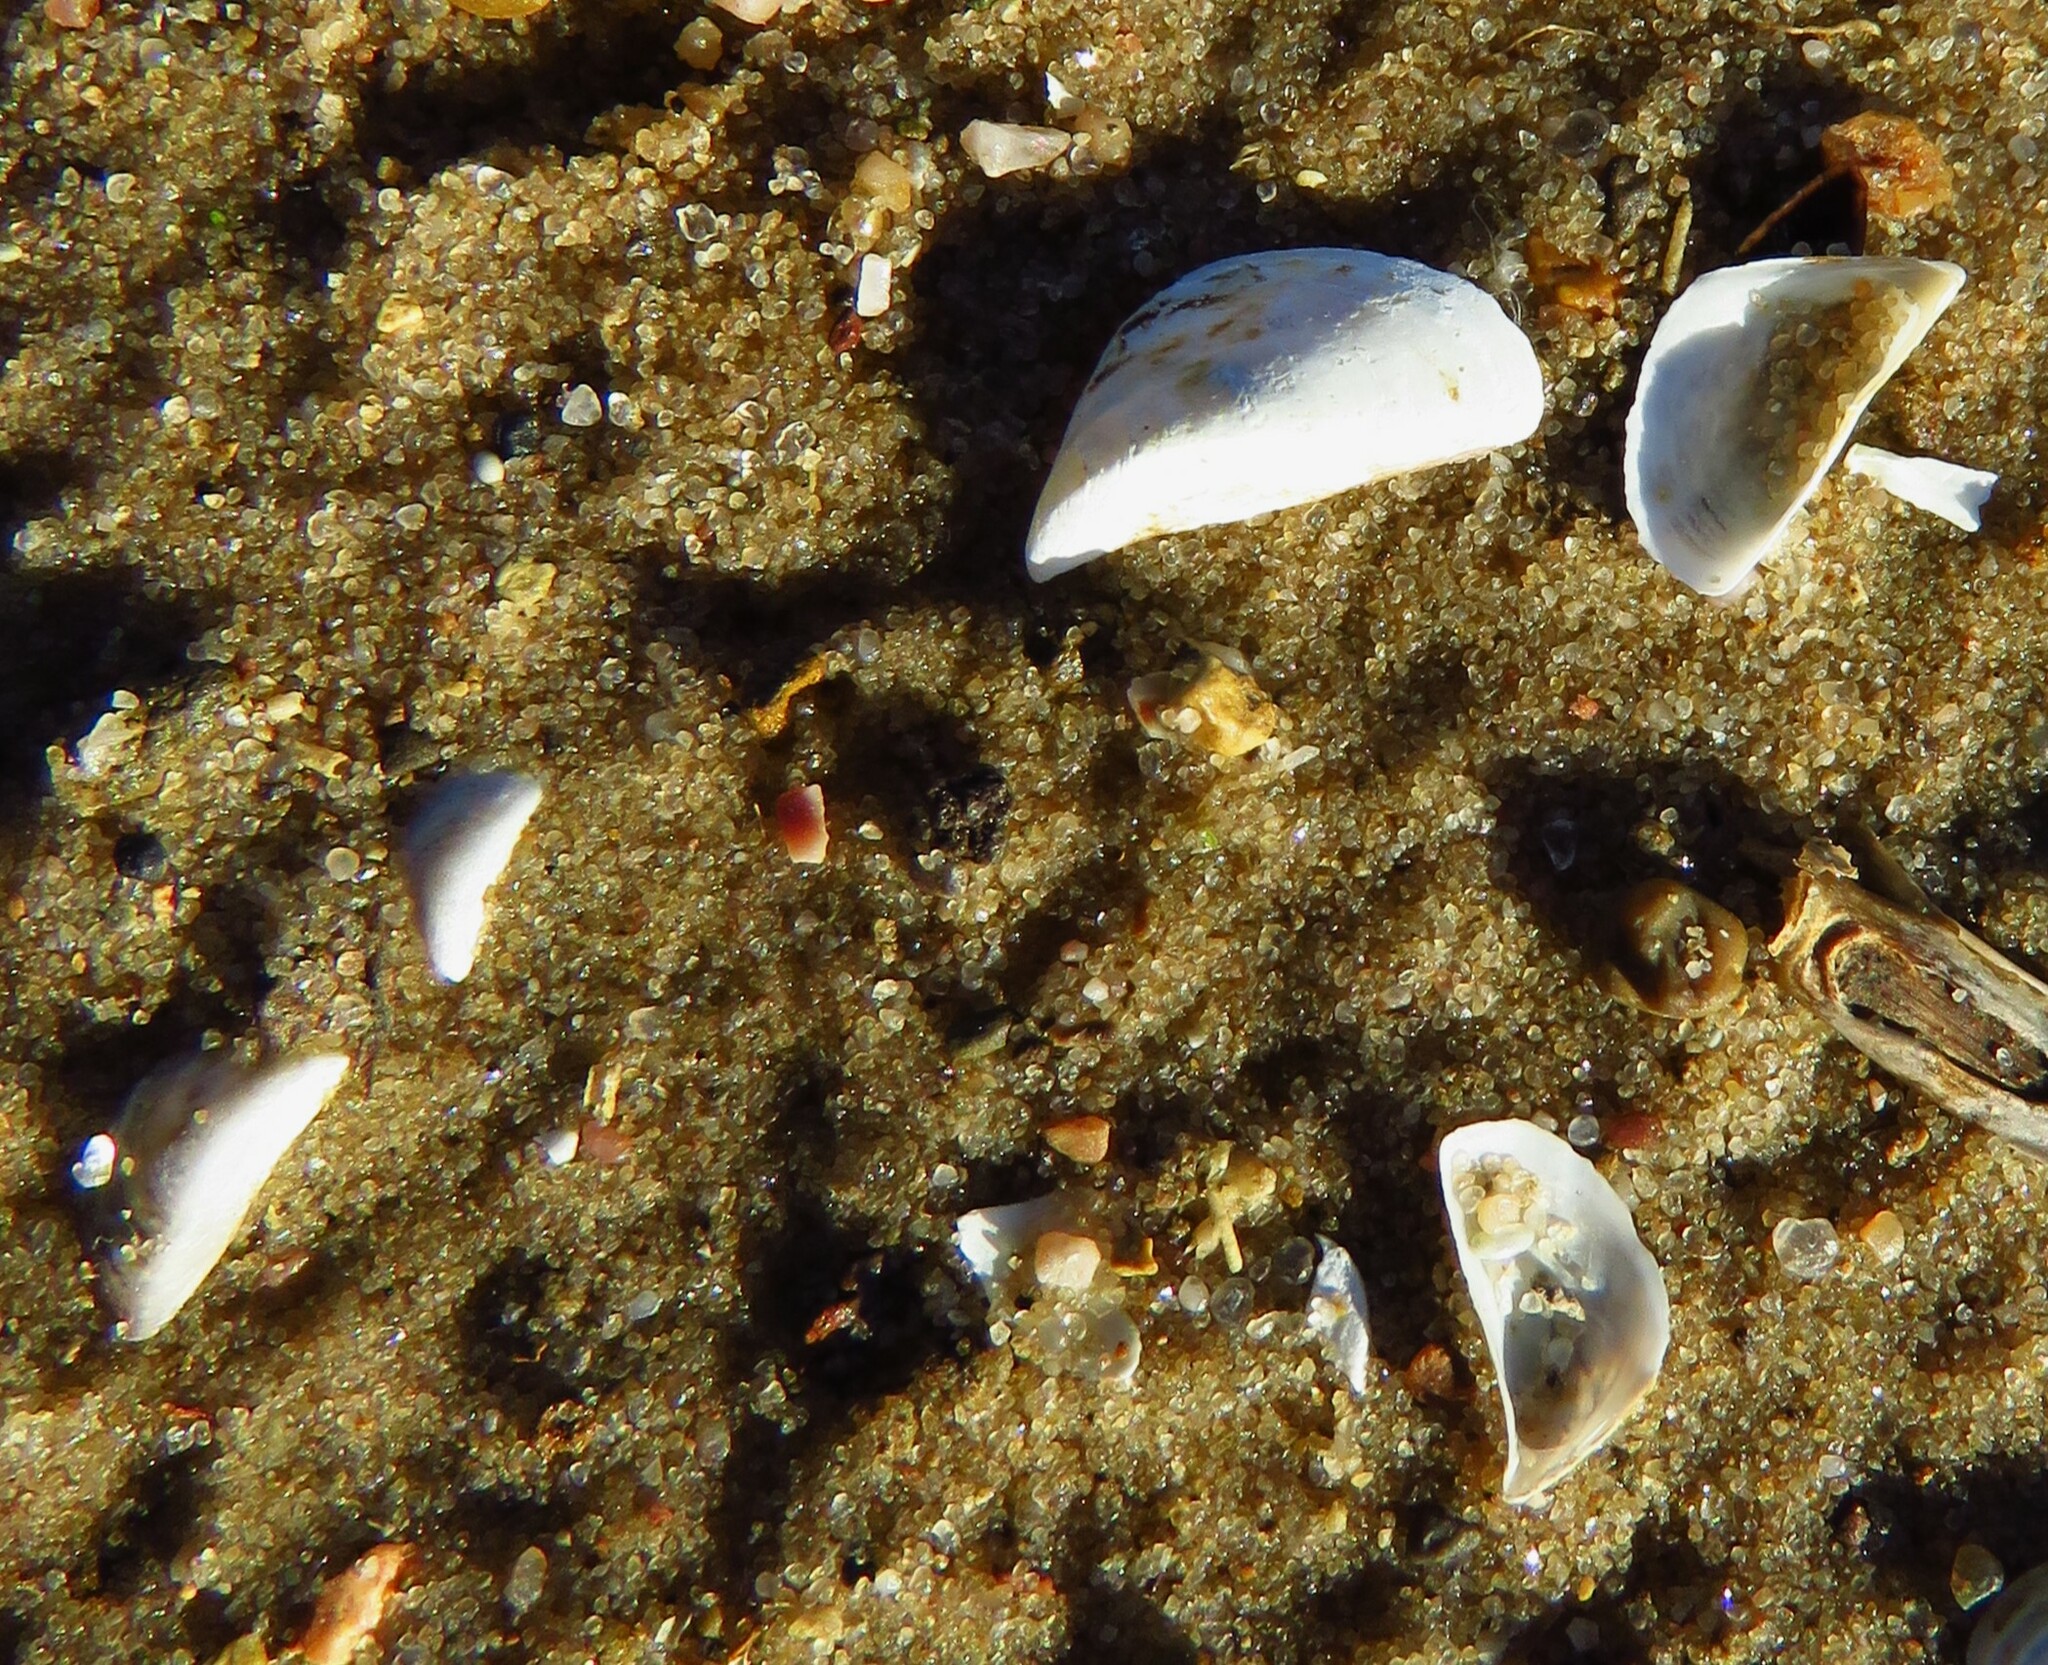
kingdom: Animalia
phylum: Mollusca
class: Bivalvia
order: Myida
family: Dreissenidae
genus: Dreissena
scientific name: Dreissena polymorpha
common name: Zebra mussel
